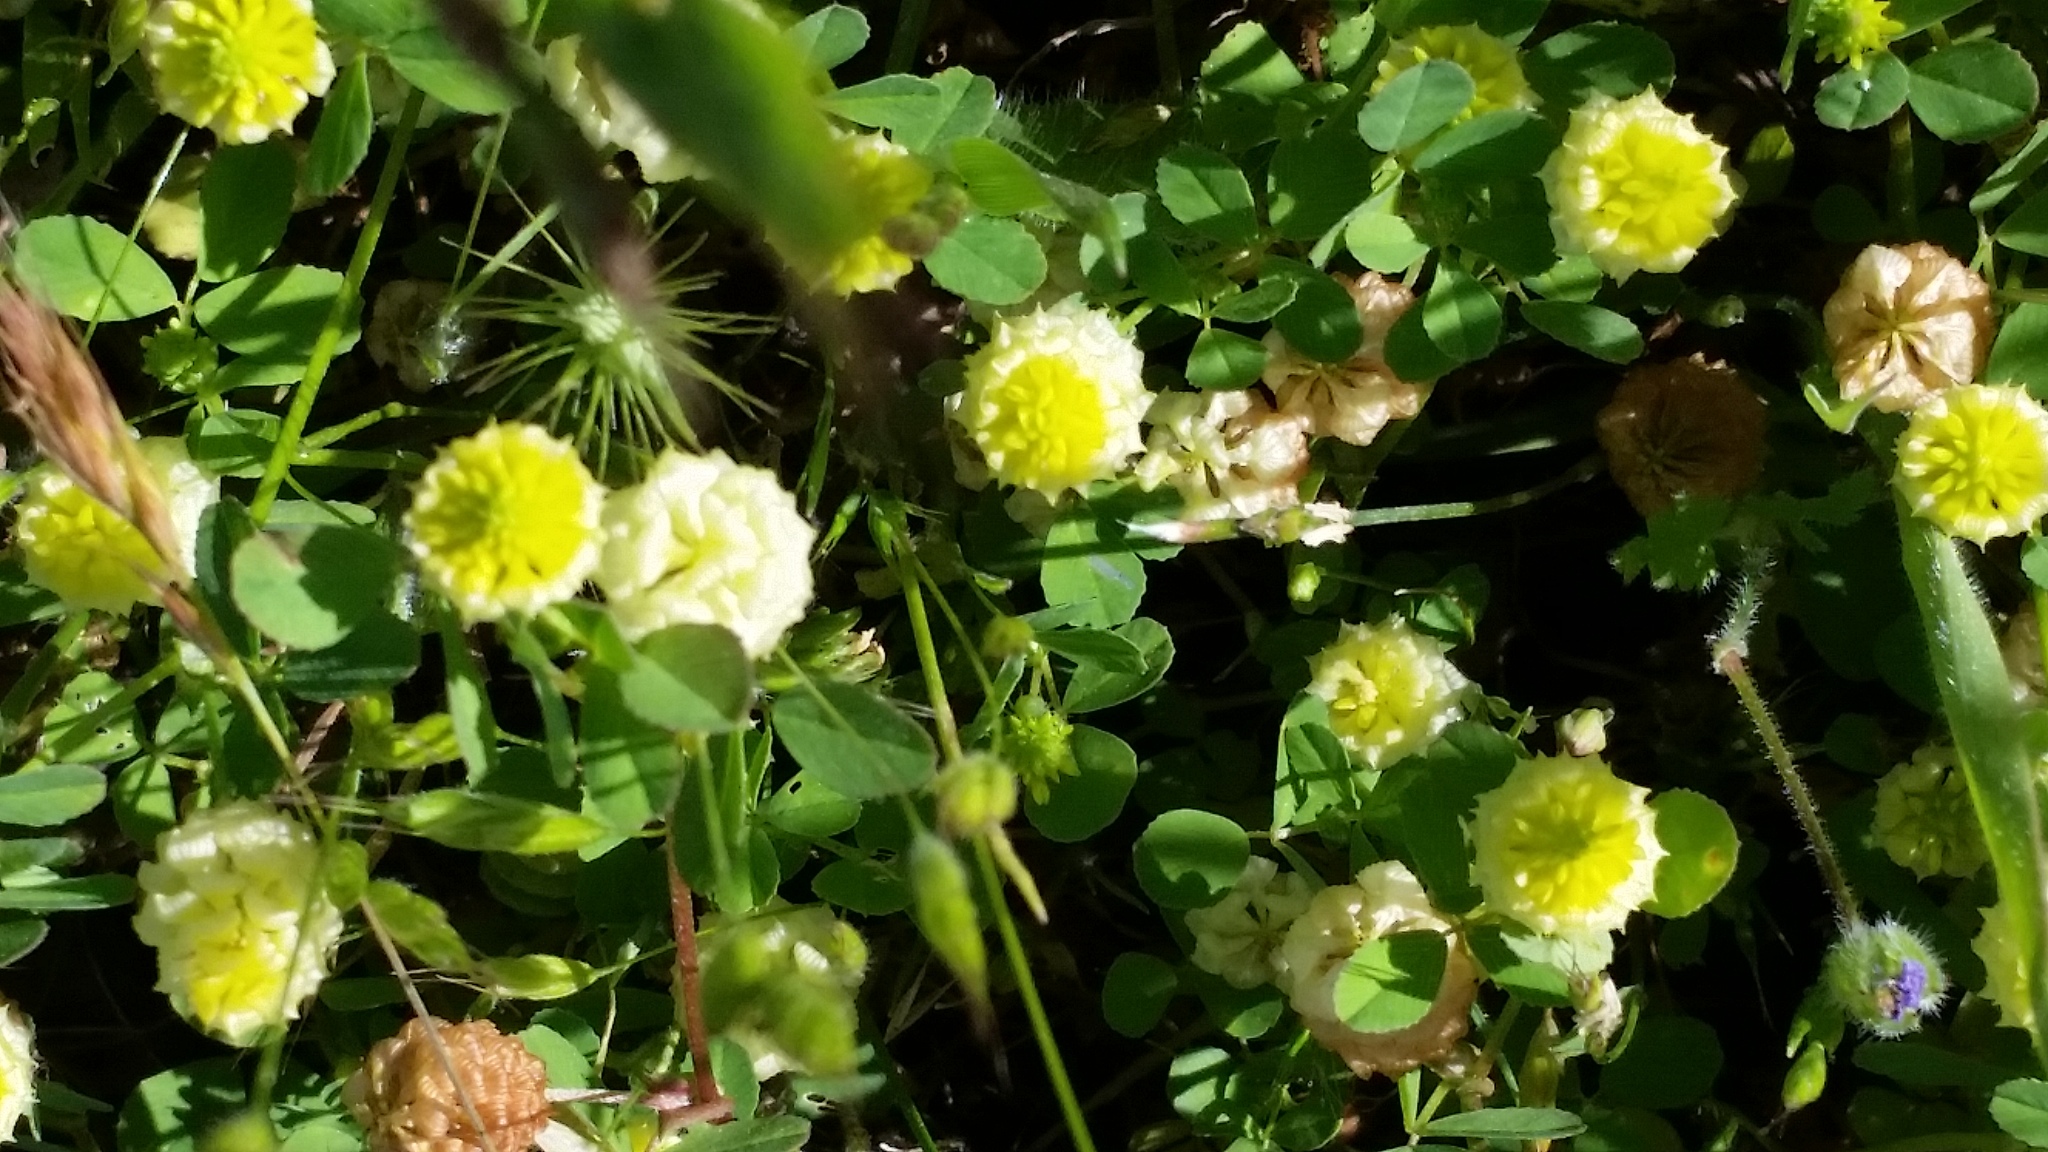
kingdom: Plantae
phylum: Tracheophyta
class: Magnoliopsida
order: Fabales
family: Fabaceae
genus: Trifolium
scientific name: Trifolium campestre
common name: Field clover
